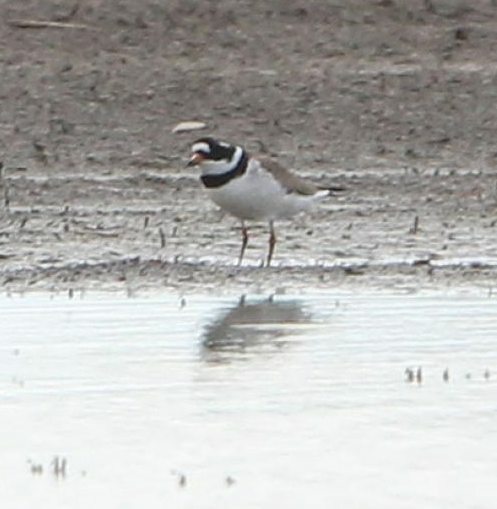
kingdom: Animalia
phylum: Chordata
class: Aves
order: Charadriiformes
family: Charadriidae
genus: Charadrius
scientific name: Charadrius hiaticula
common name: Common ringed plover
